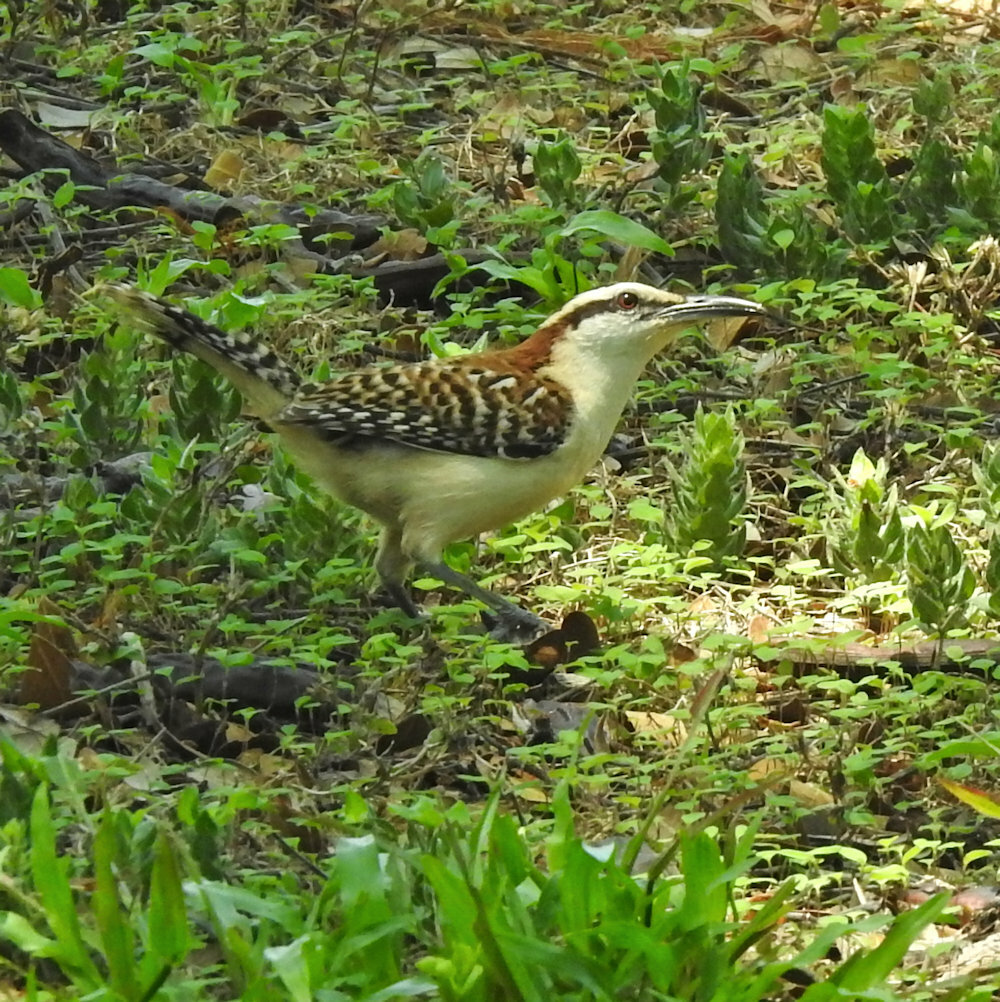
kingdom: Animalia
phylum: Chordata
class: Aves
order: Passeriformes
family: Troglodytidae
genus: Campylorhynchus
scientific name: Campylorhynchus rufinucha
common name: Rufous-naped wren
